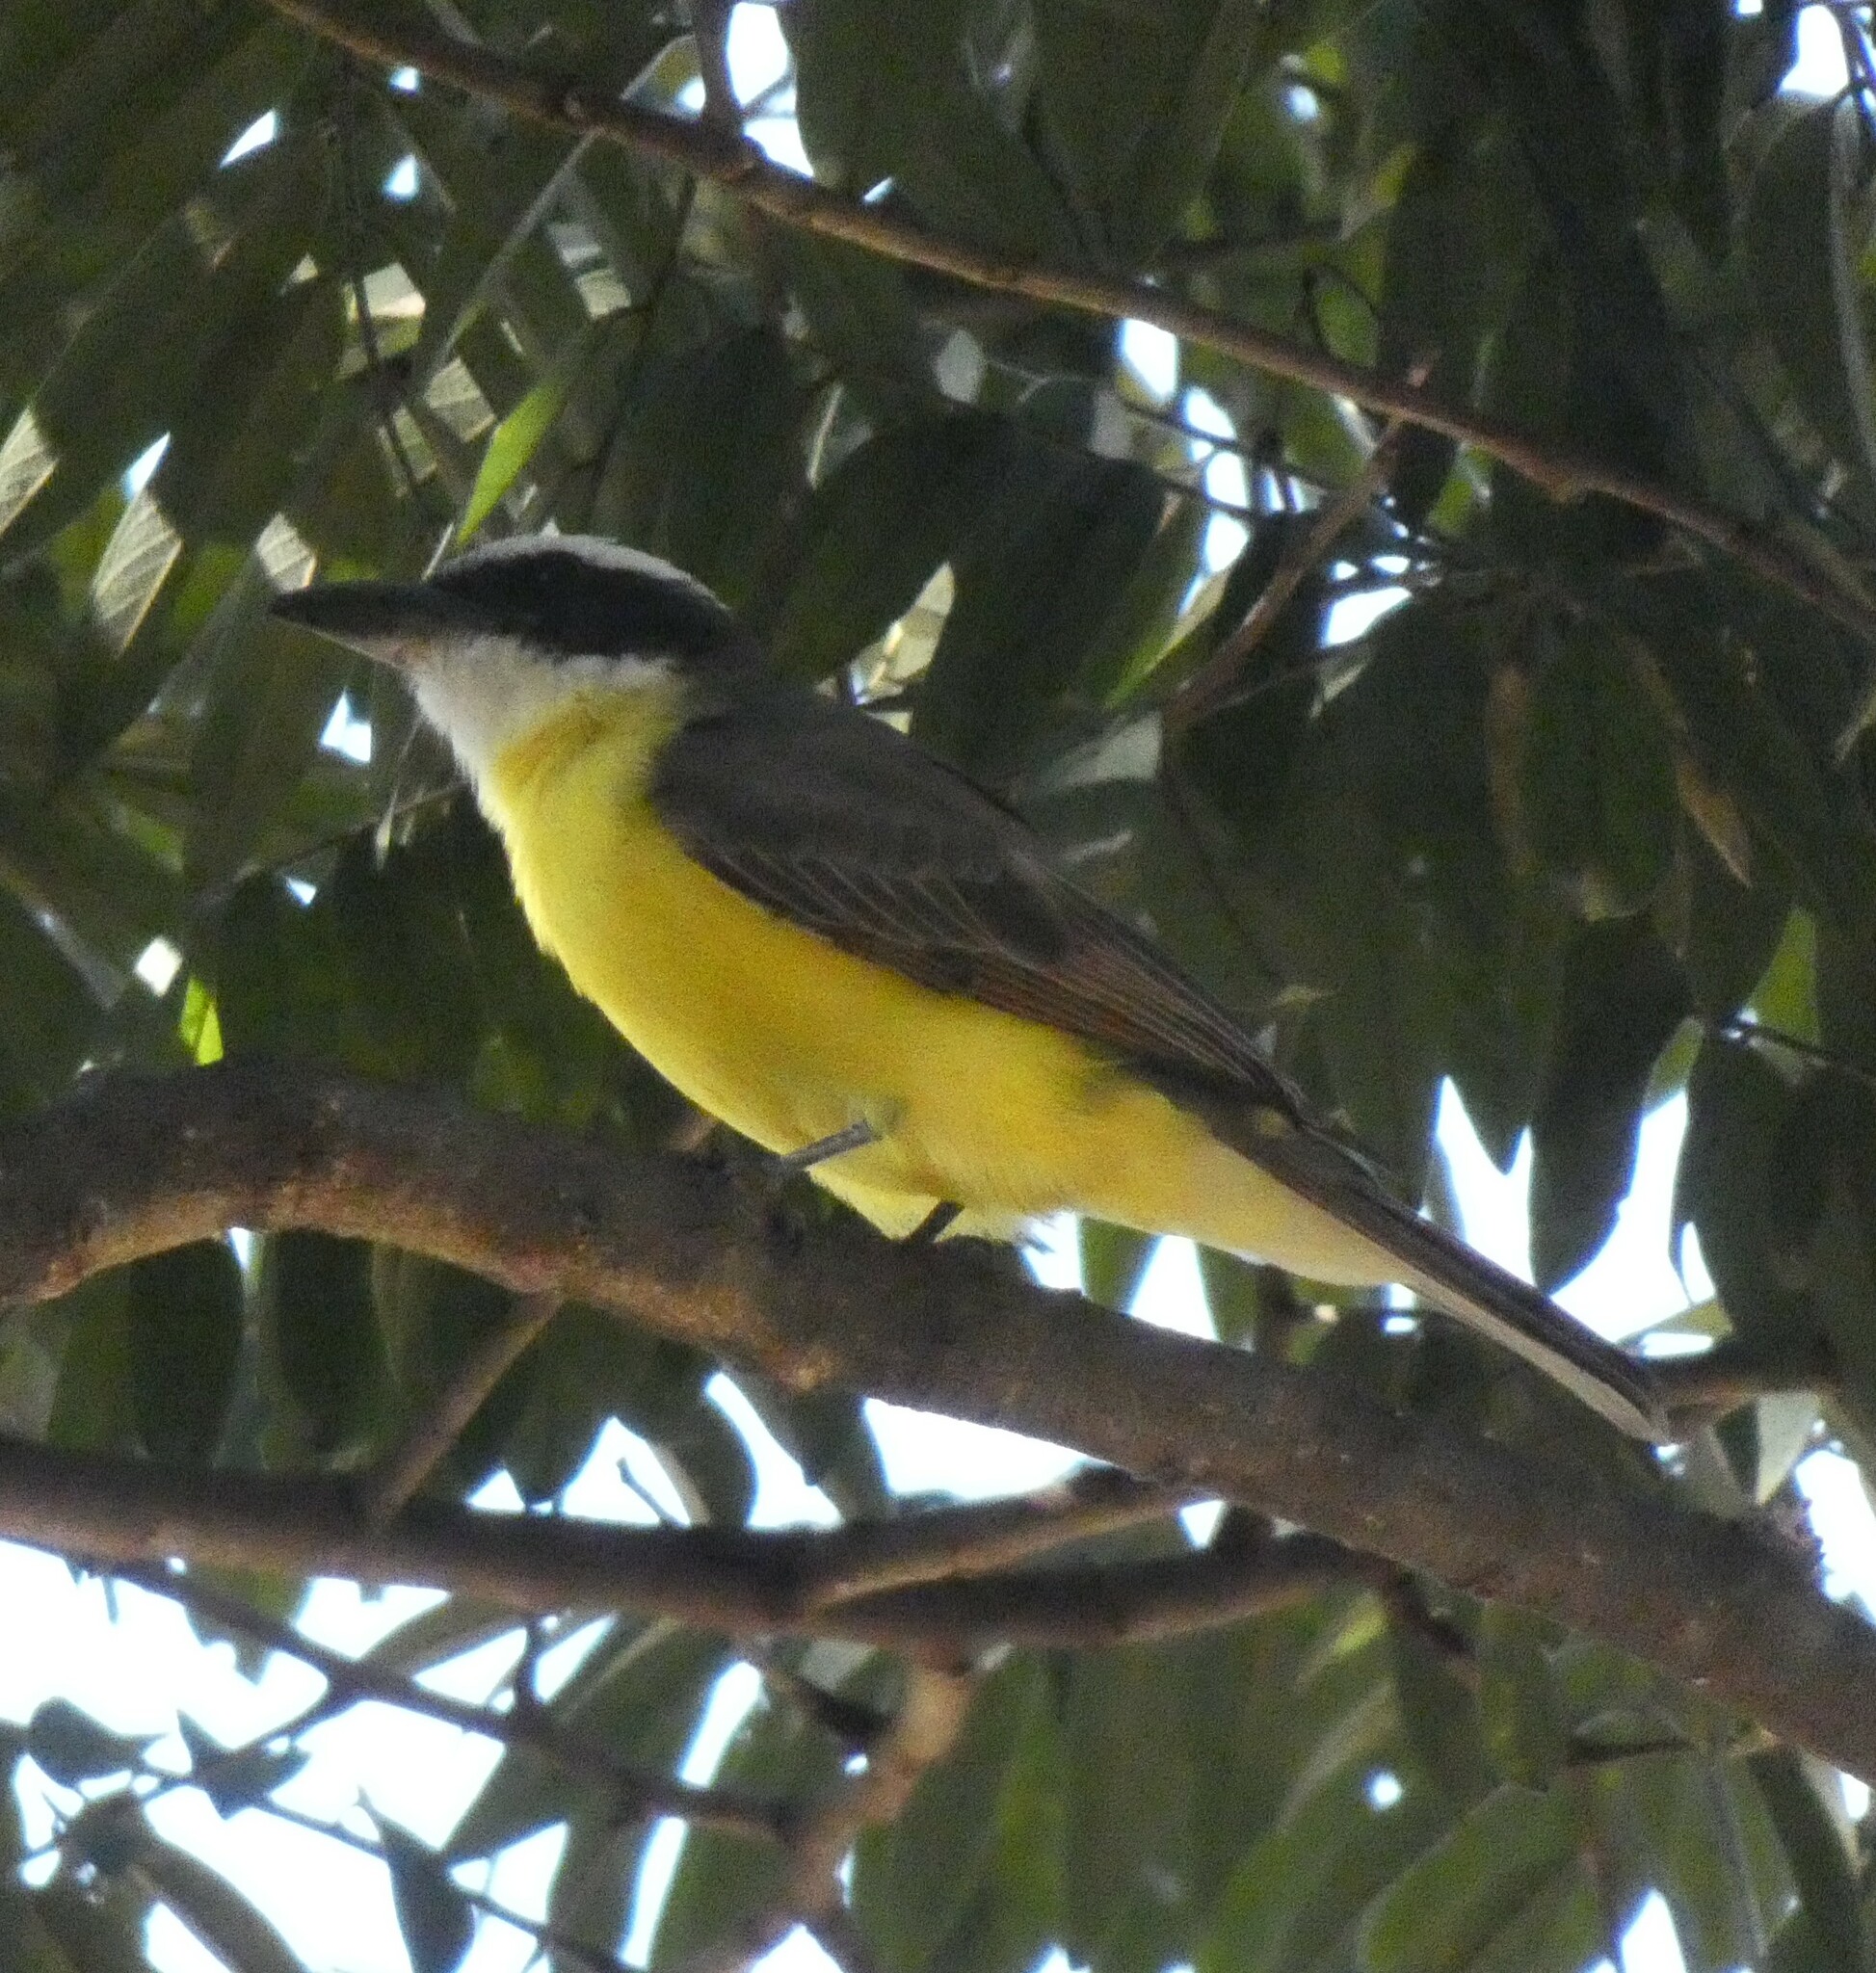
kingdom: Animalia
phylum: Chordata
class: Aves
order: Passeriformes
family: Tyrannidae
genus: Megarynchus
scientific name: Megarynchus pitangua
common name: Boat-billed flycatcher
